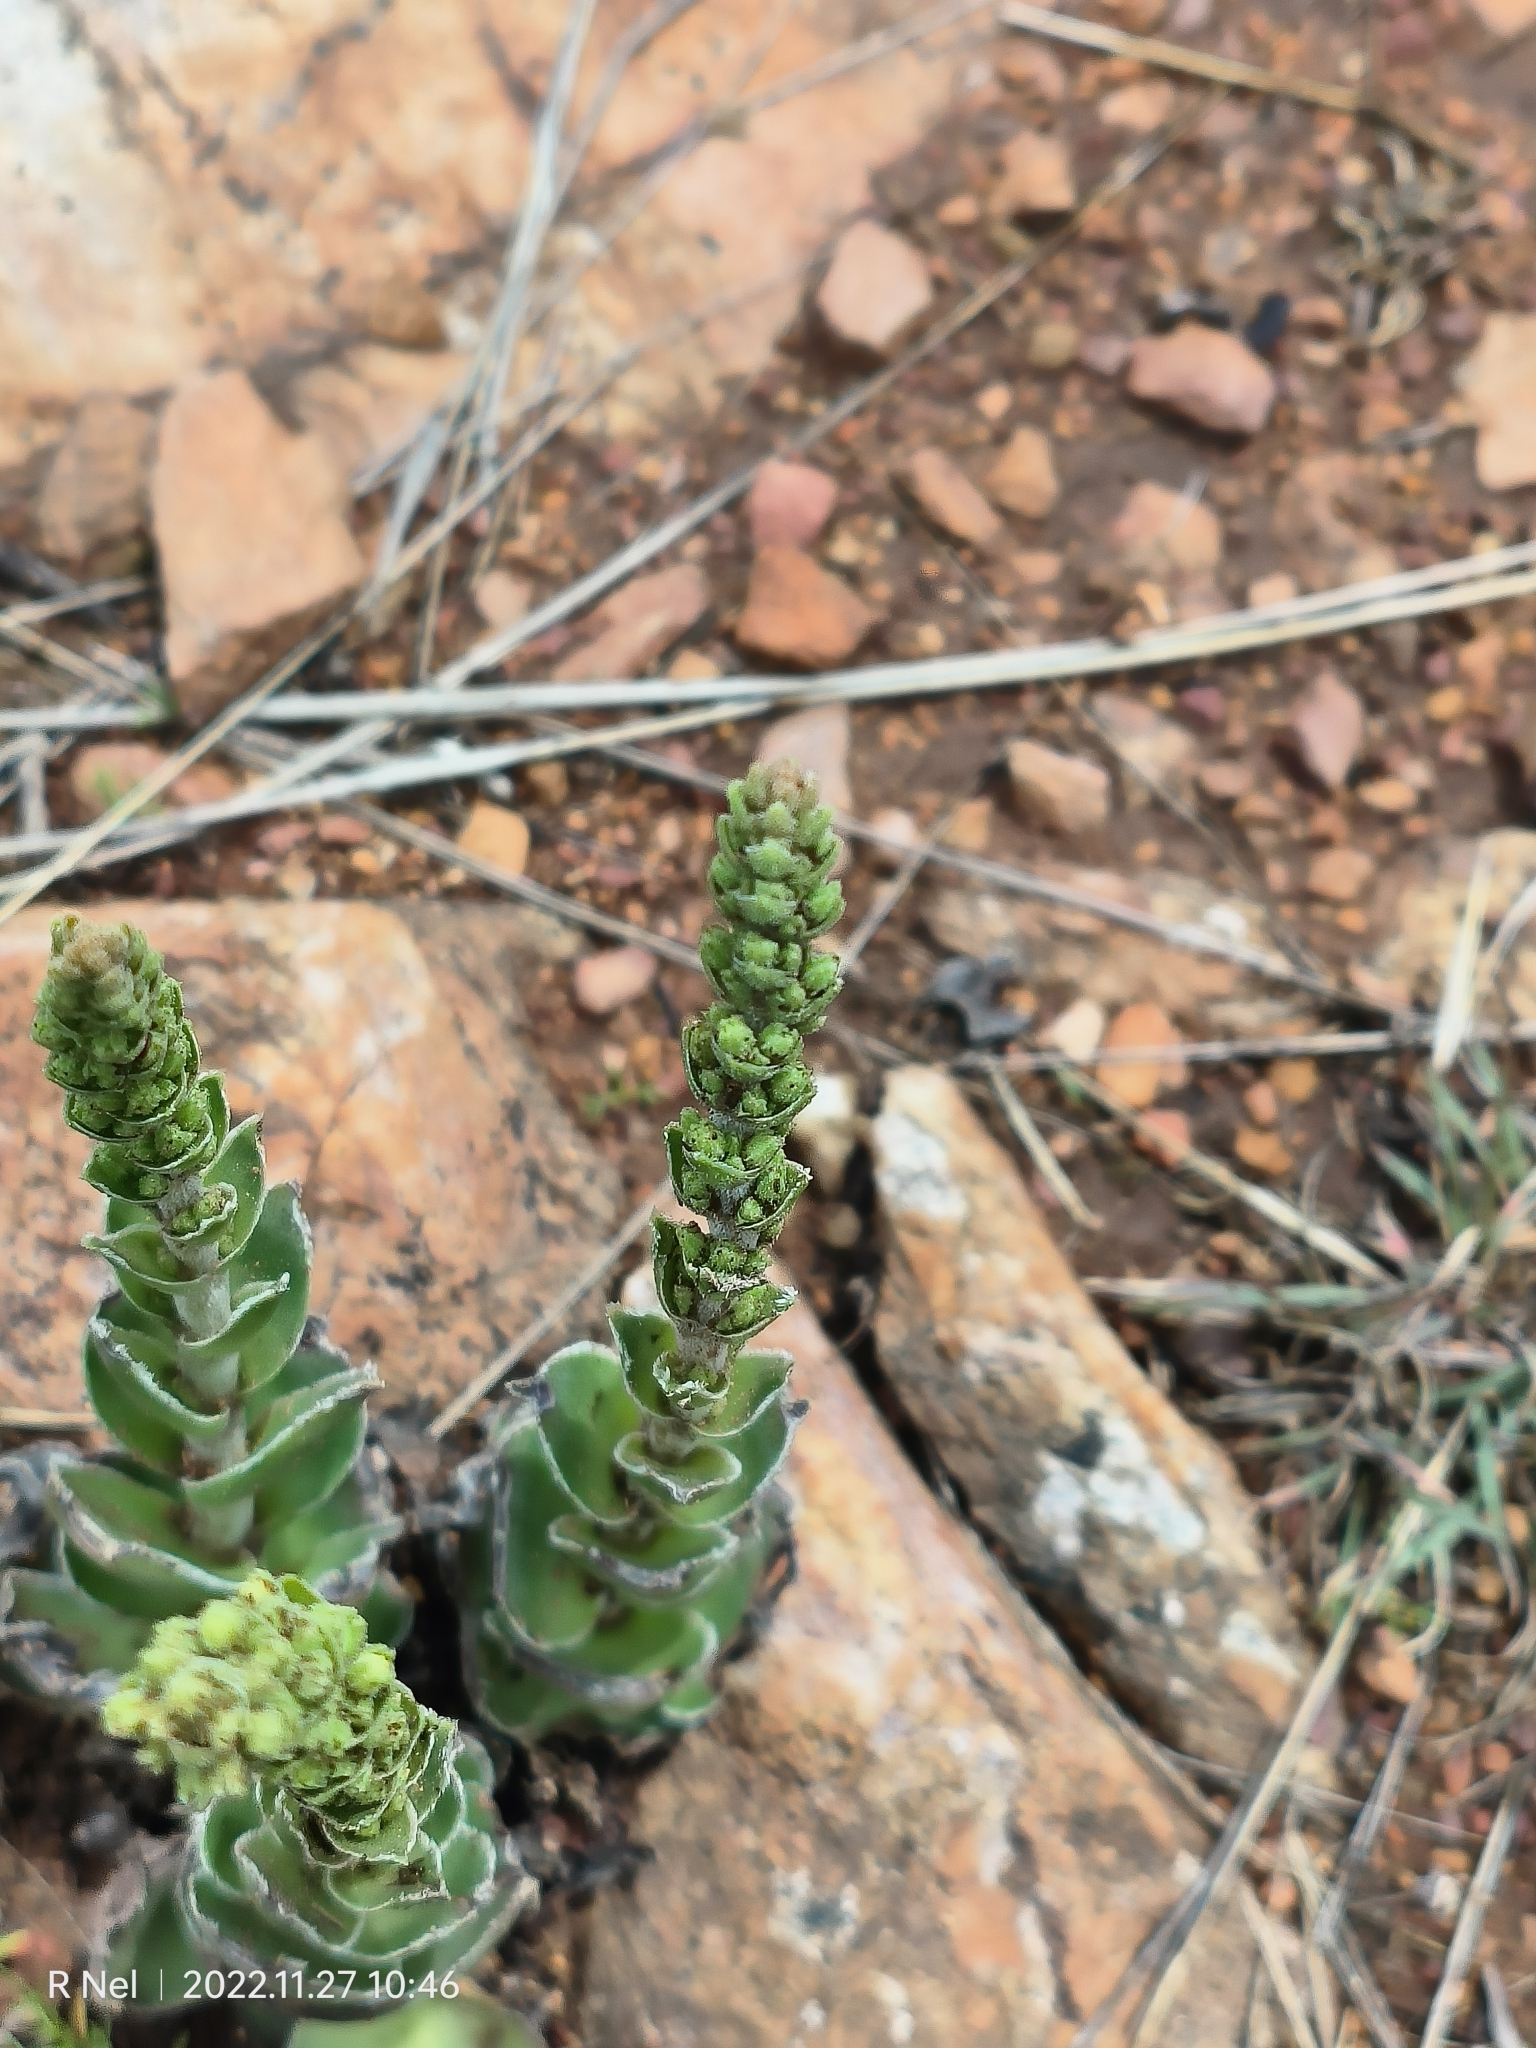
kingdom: Plantae
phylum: Tracheophyta
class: Magnoliopsida
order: Saxifragales
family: Crassulaceae
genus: Crassula
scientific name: Crassula capitella
